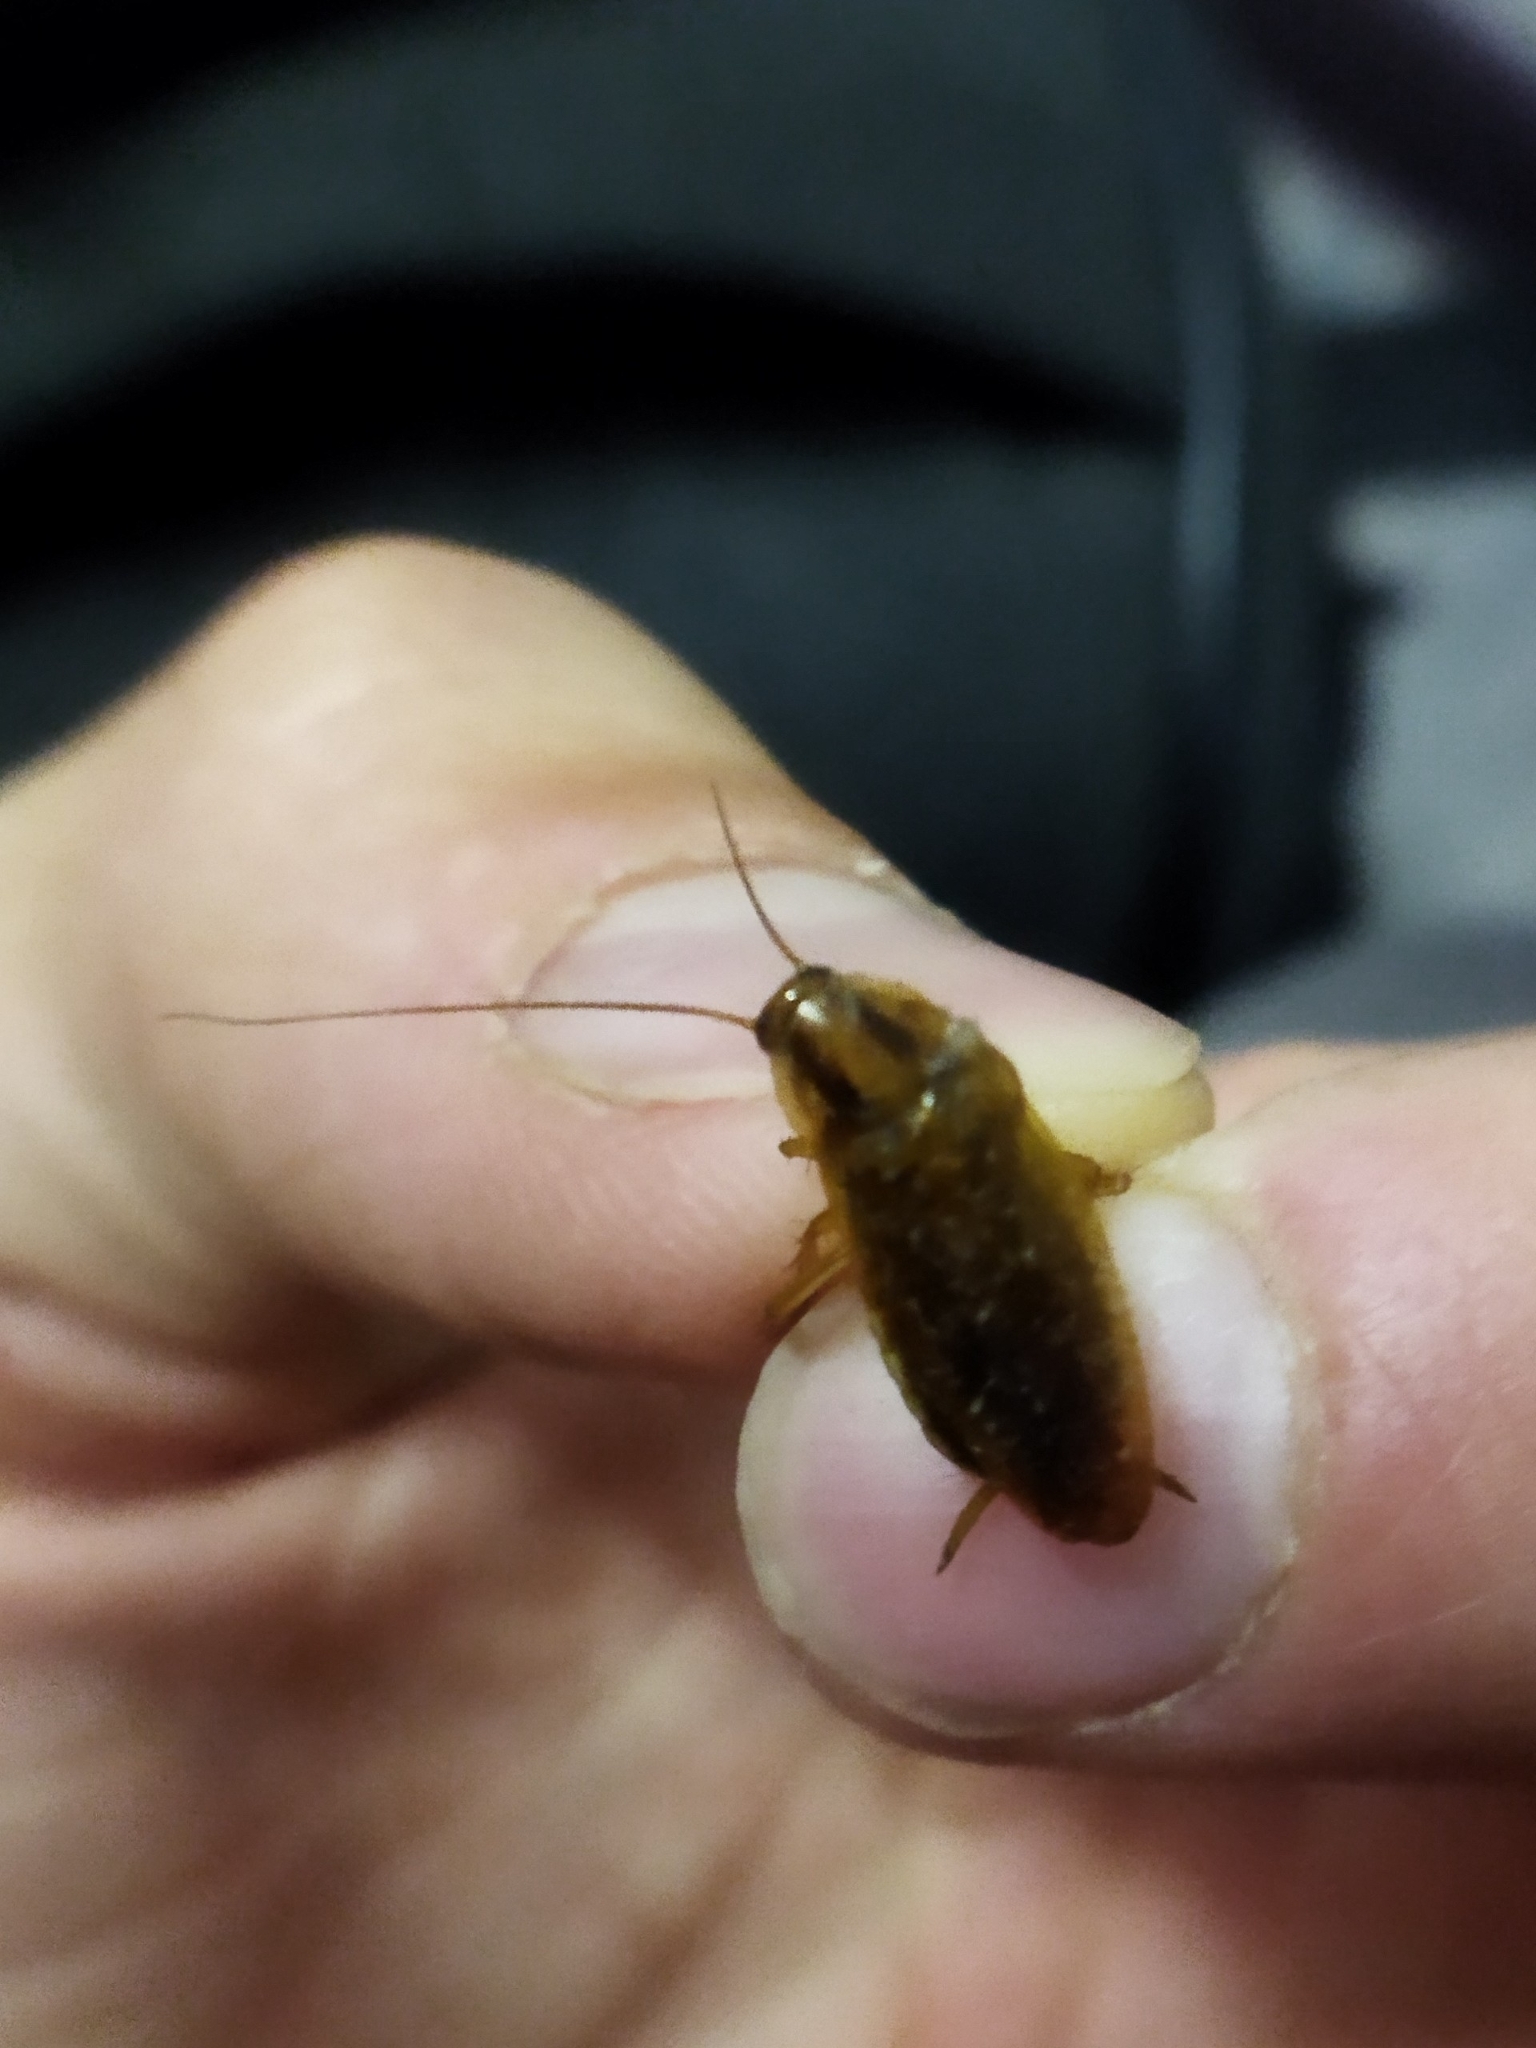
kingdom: Animalia
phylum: Arthropoda
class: Insecta
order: Blattodea
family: Ectobiidae
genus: Blattella
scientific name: Blattella germanica
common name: German cockroach
